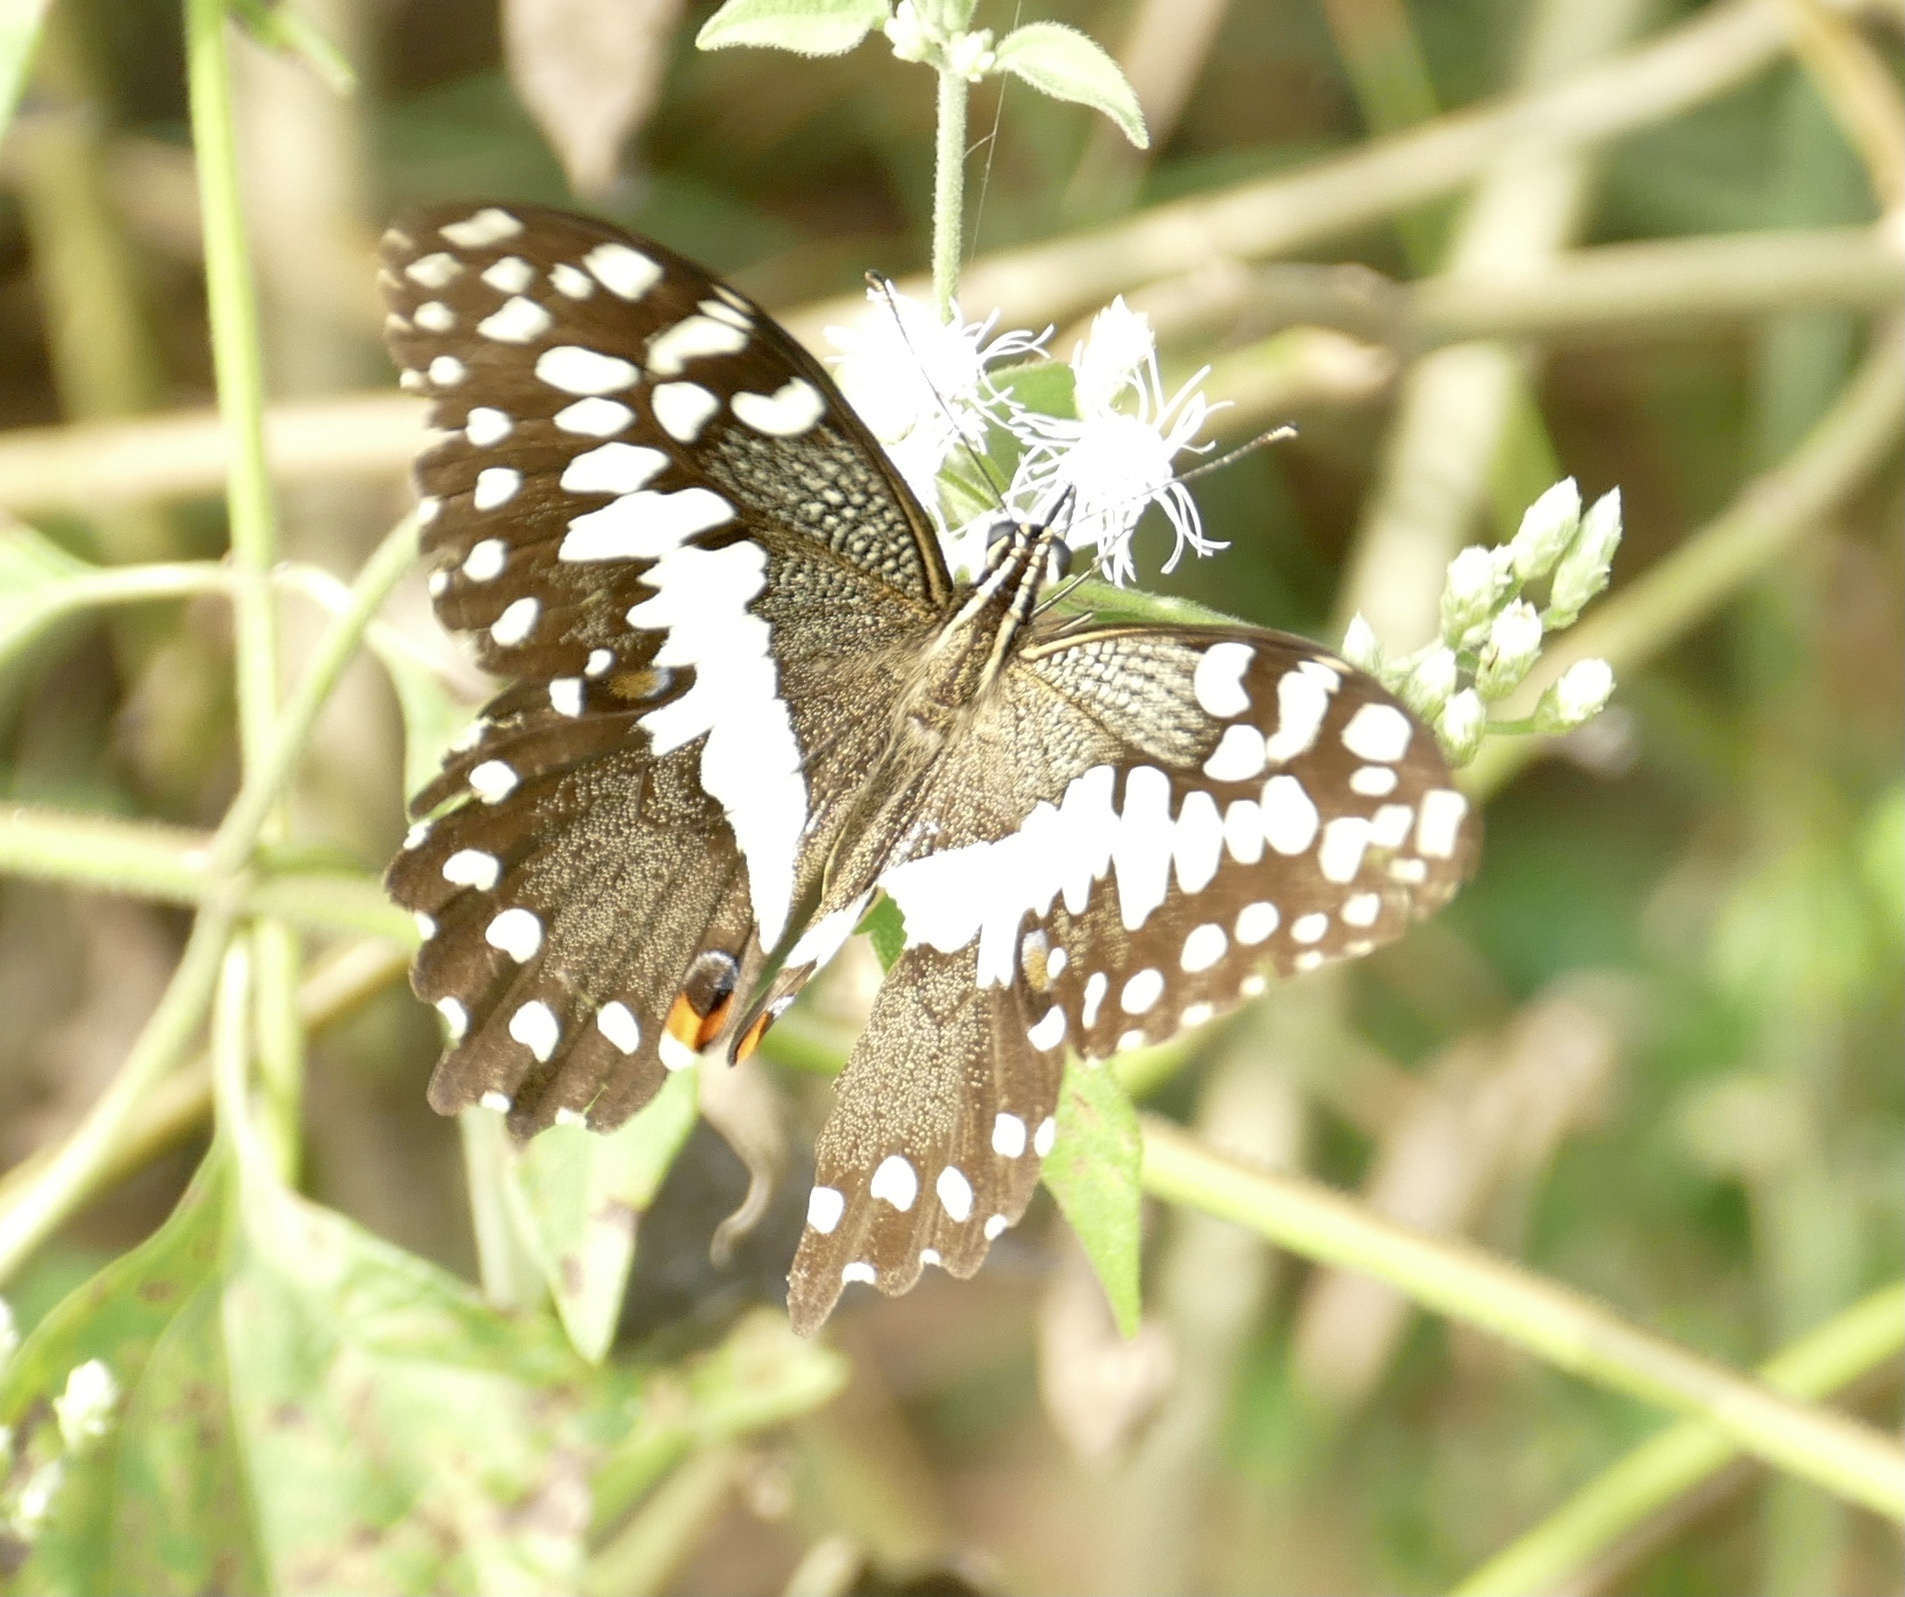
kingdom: Animalia
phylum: Arthropoda
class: Insecta
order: Lepidoptera
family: Papilionidae
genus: Papilio
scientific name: Papilio demodocus
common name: Christmas butterfly
